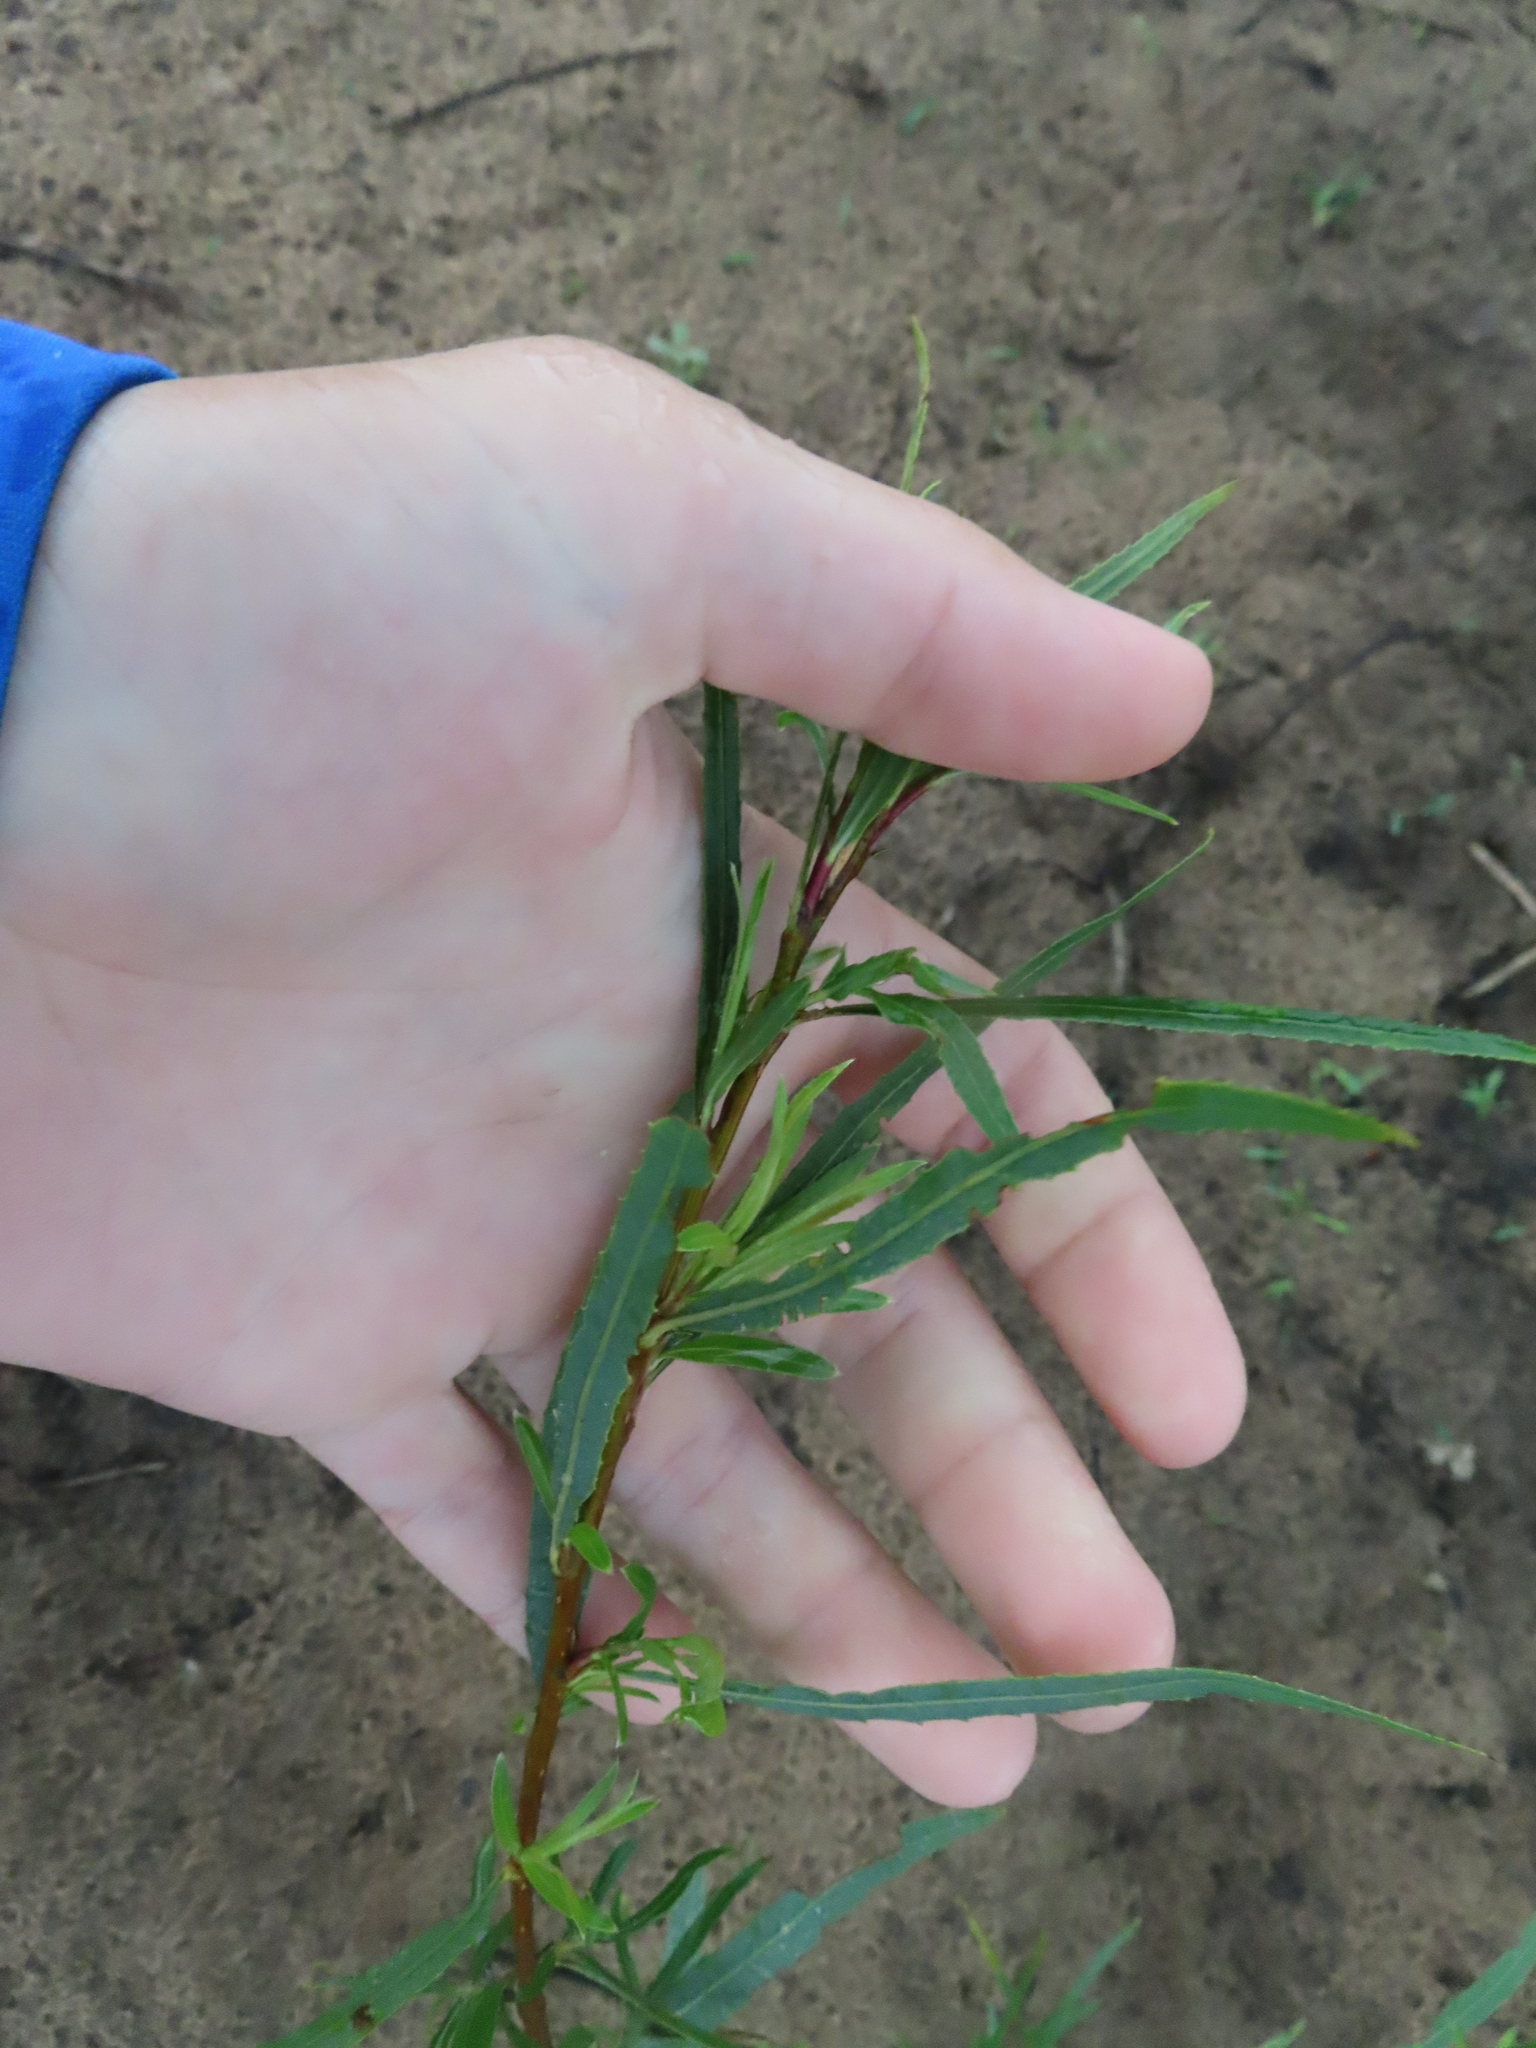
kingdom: Plantae
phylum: Tracheophyta
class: Magnoliopsida
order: Malpighiales
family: Salicaceae
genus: Salix
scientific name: Salix interior
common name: Sandbar willow
